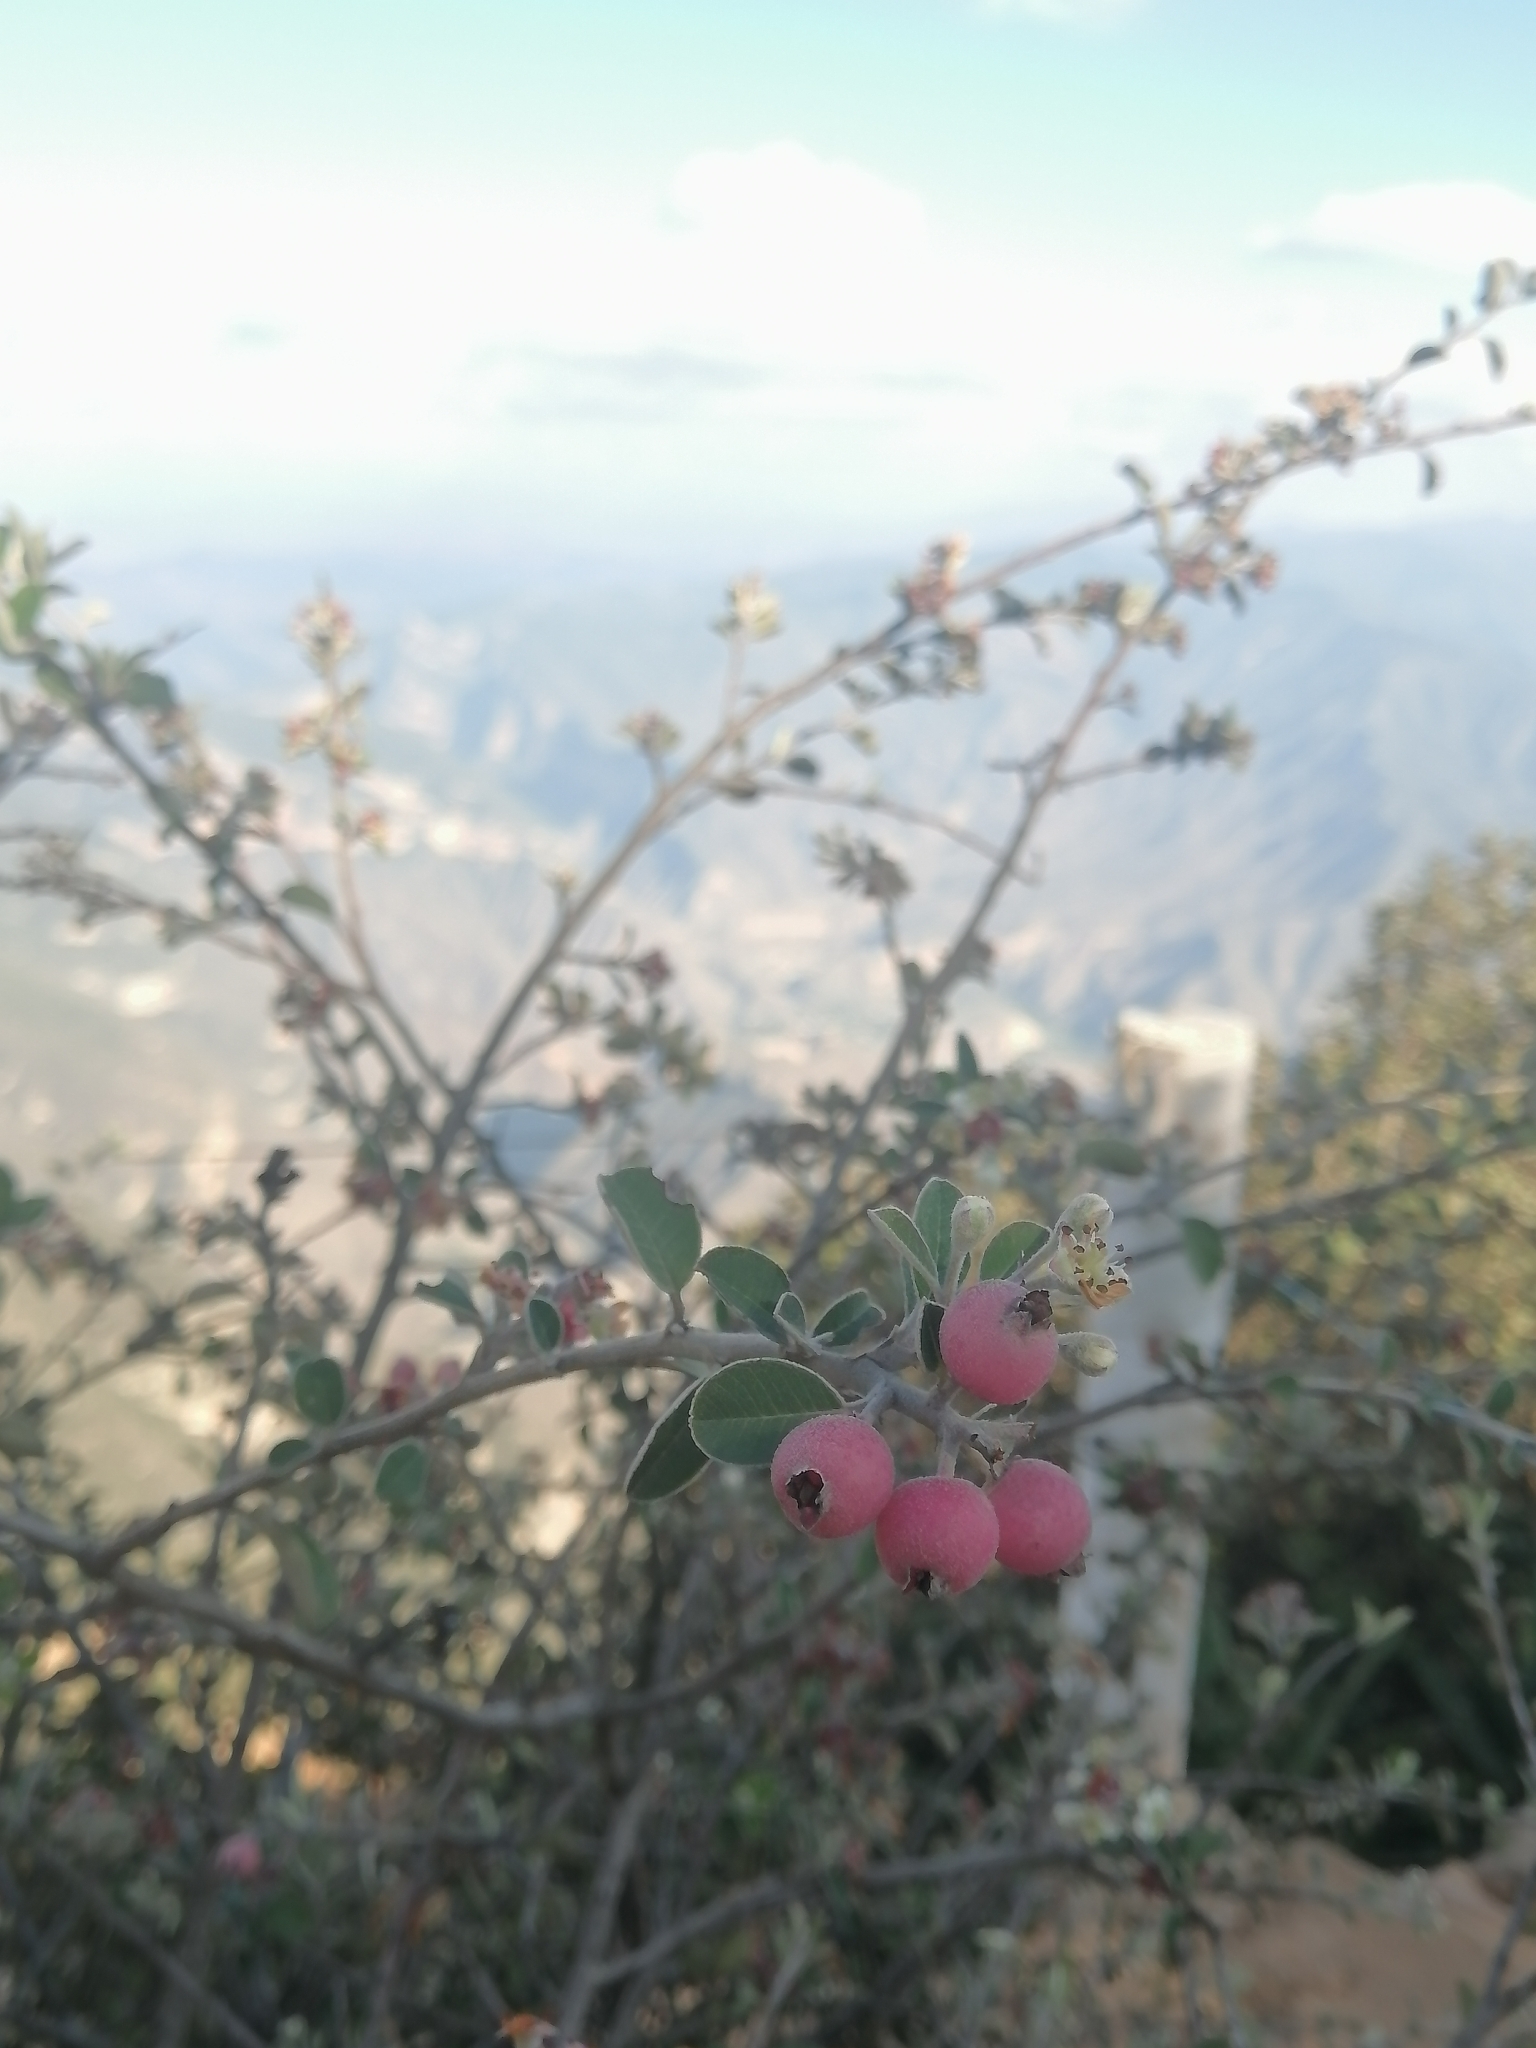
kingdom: Plantae
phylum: Tracheophyta
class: Magnoliopsida
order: Rosales
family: Rosaceae
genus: Malacomeles
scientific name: Malacomeles denticulata
